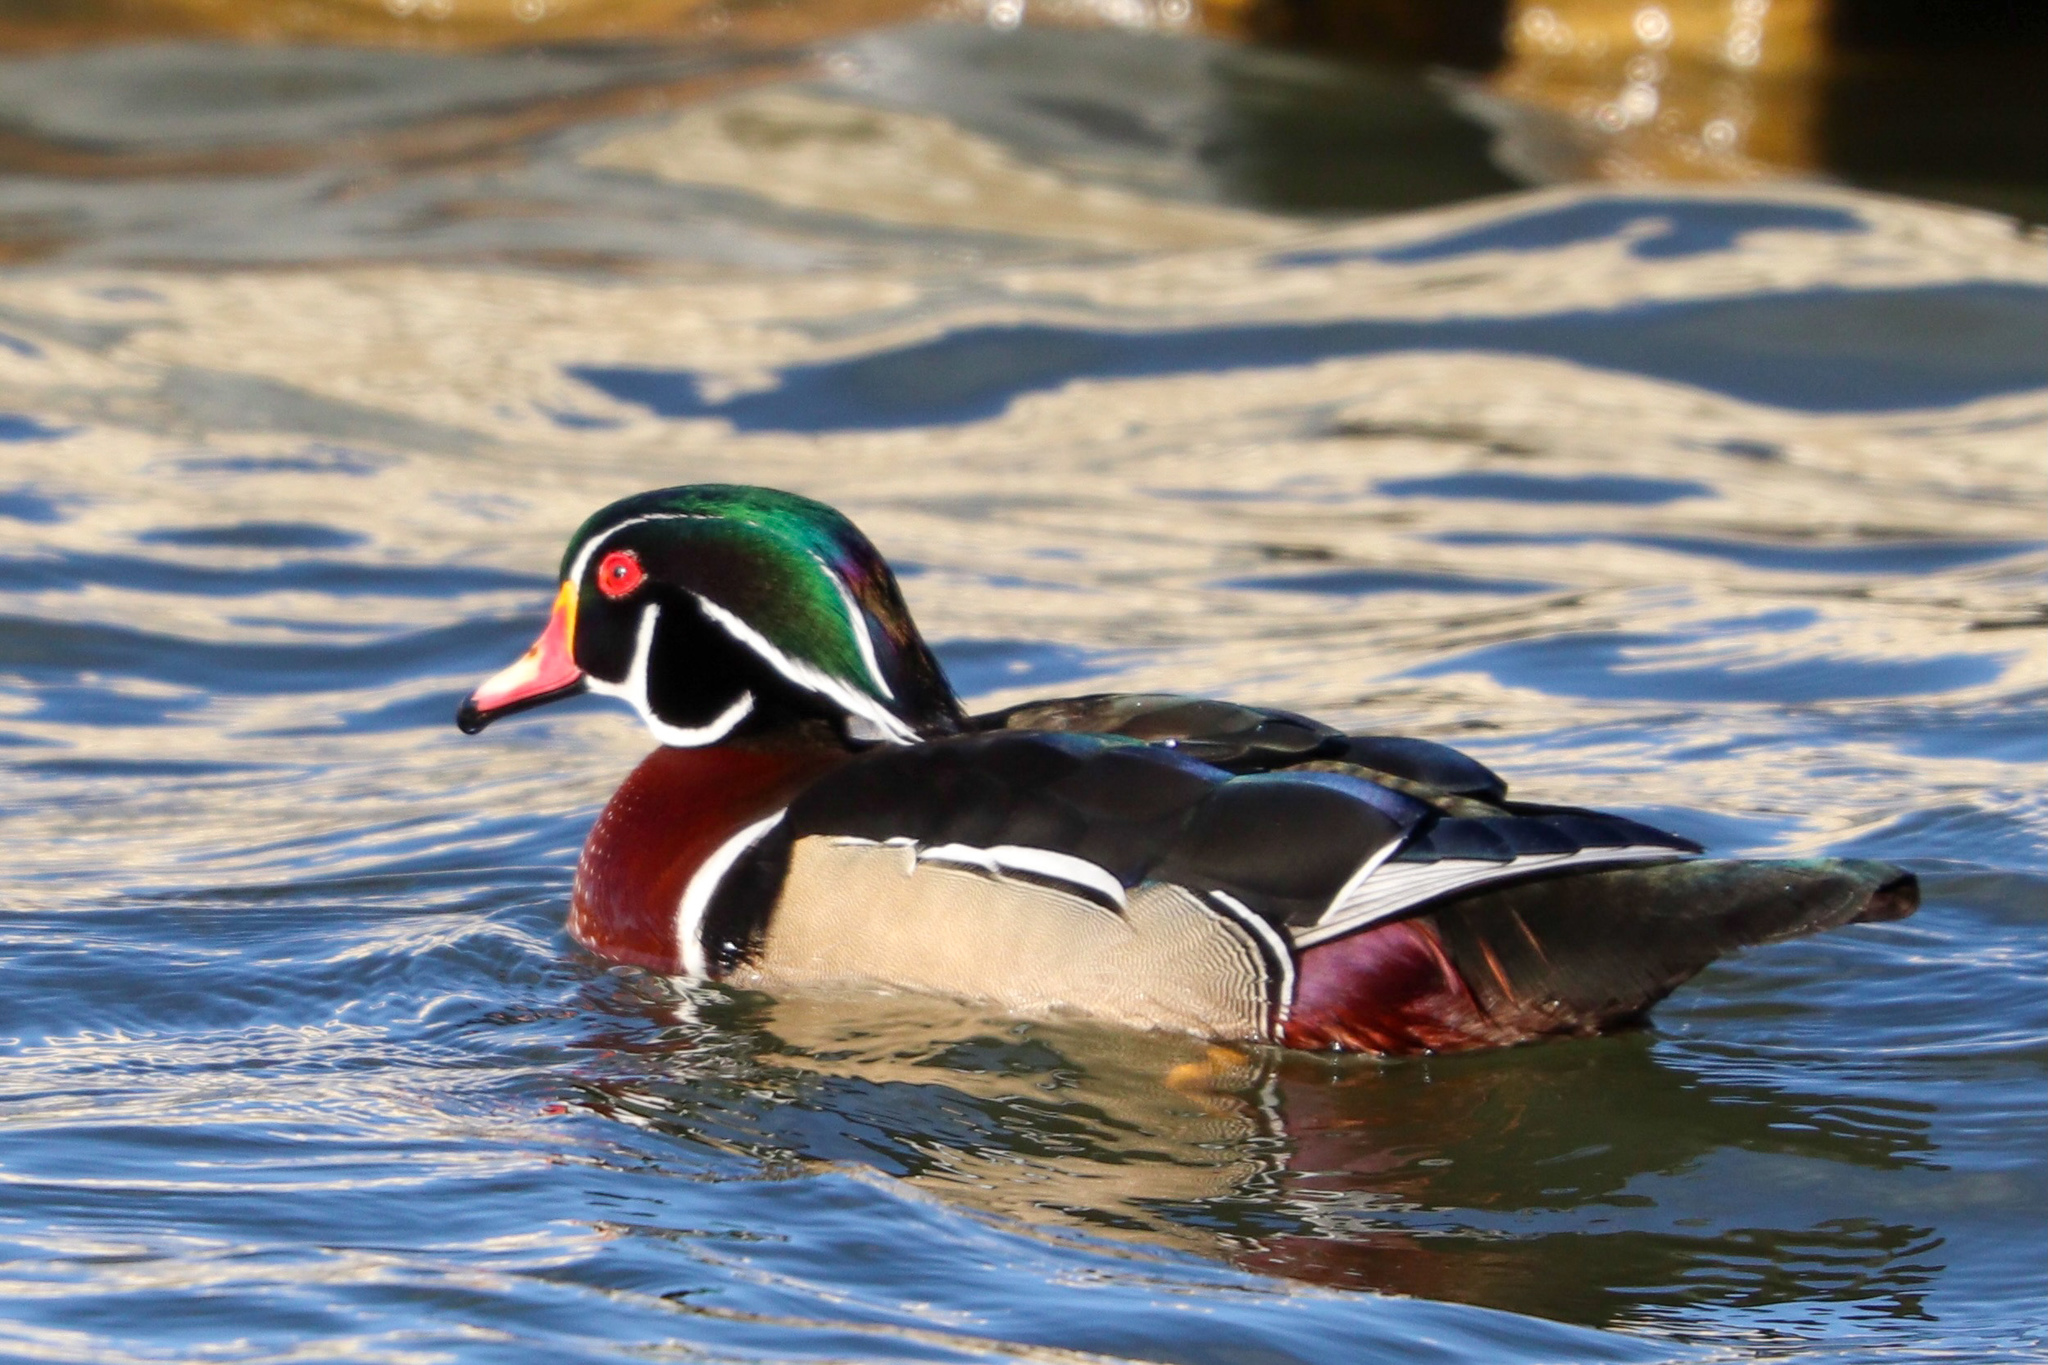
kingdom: Animalia
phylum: Chordata
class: Aves
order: Anseriformes
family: Anatidae
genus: Aix
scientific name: Aix sponsa
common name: Wood duck
